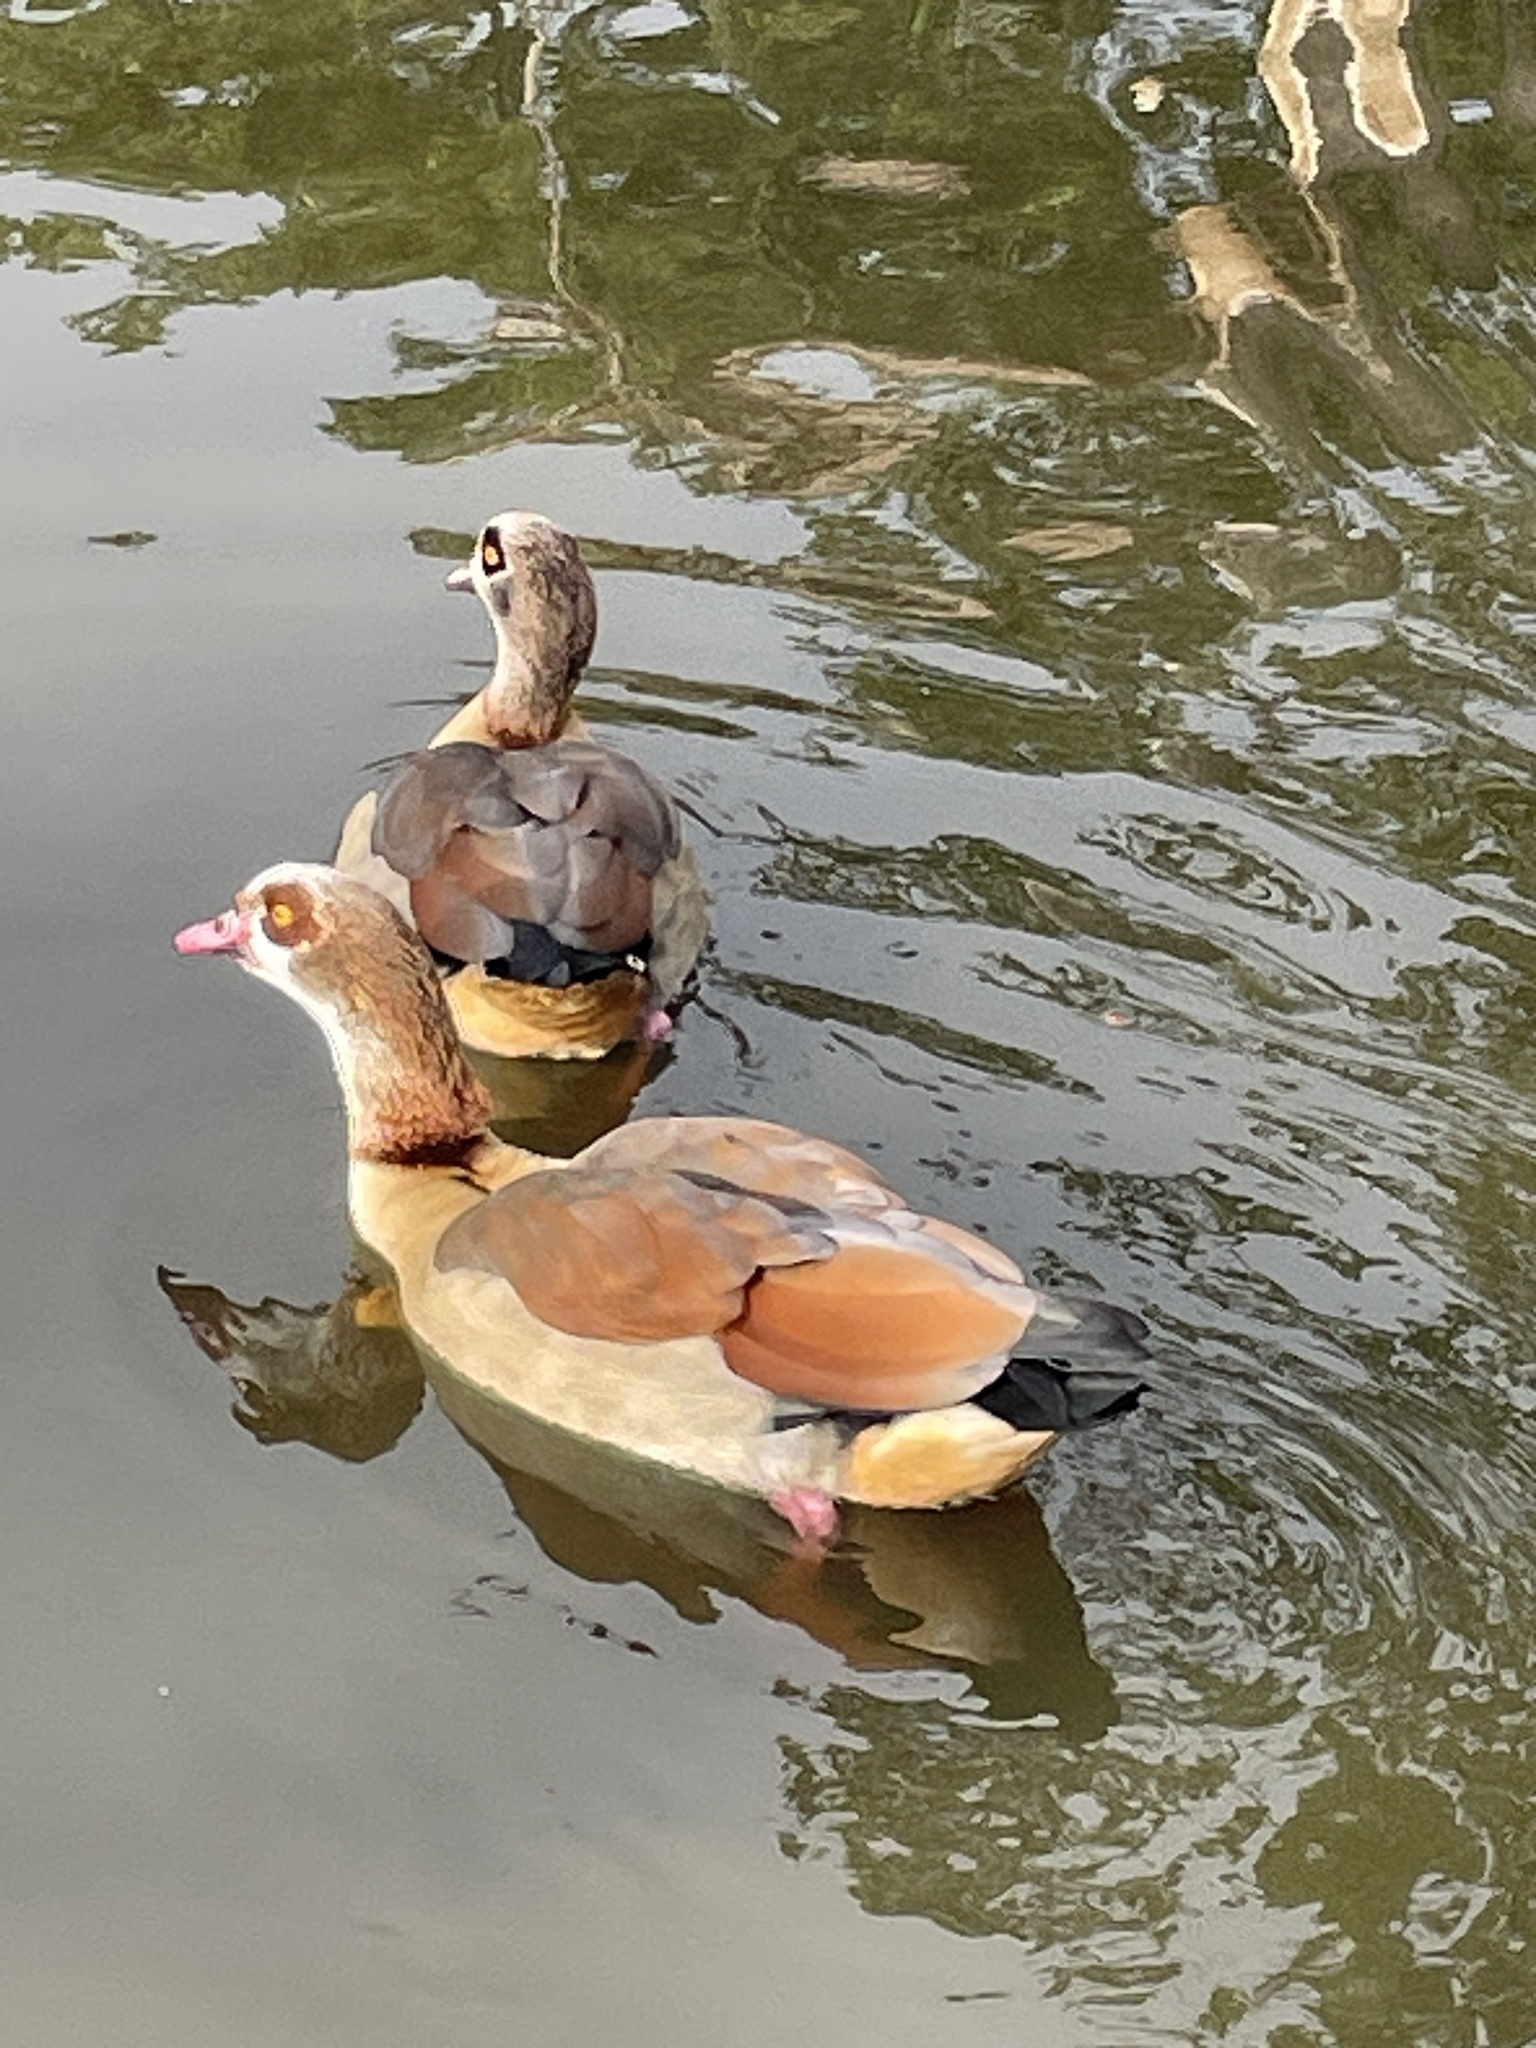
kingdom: Animalia
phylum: Chordata
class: Aves
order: Anseriformes
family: Anatidae
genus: Alopochen
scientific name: Alopochen aegyptiaca
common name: Egyptian goose
